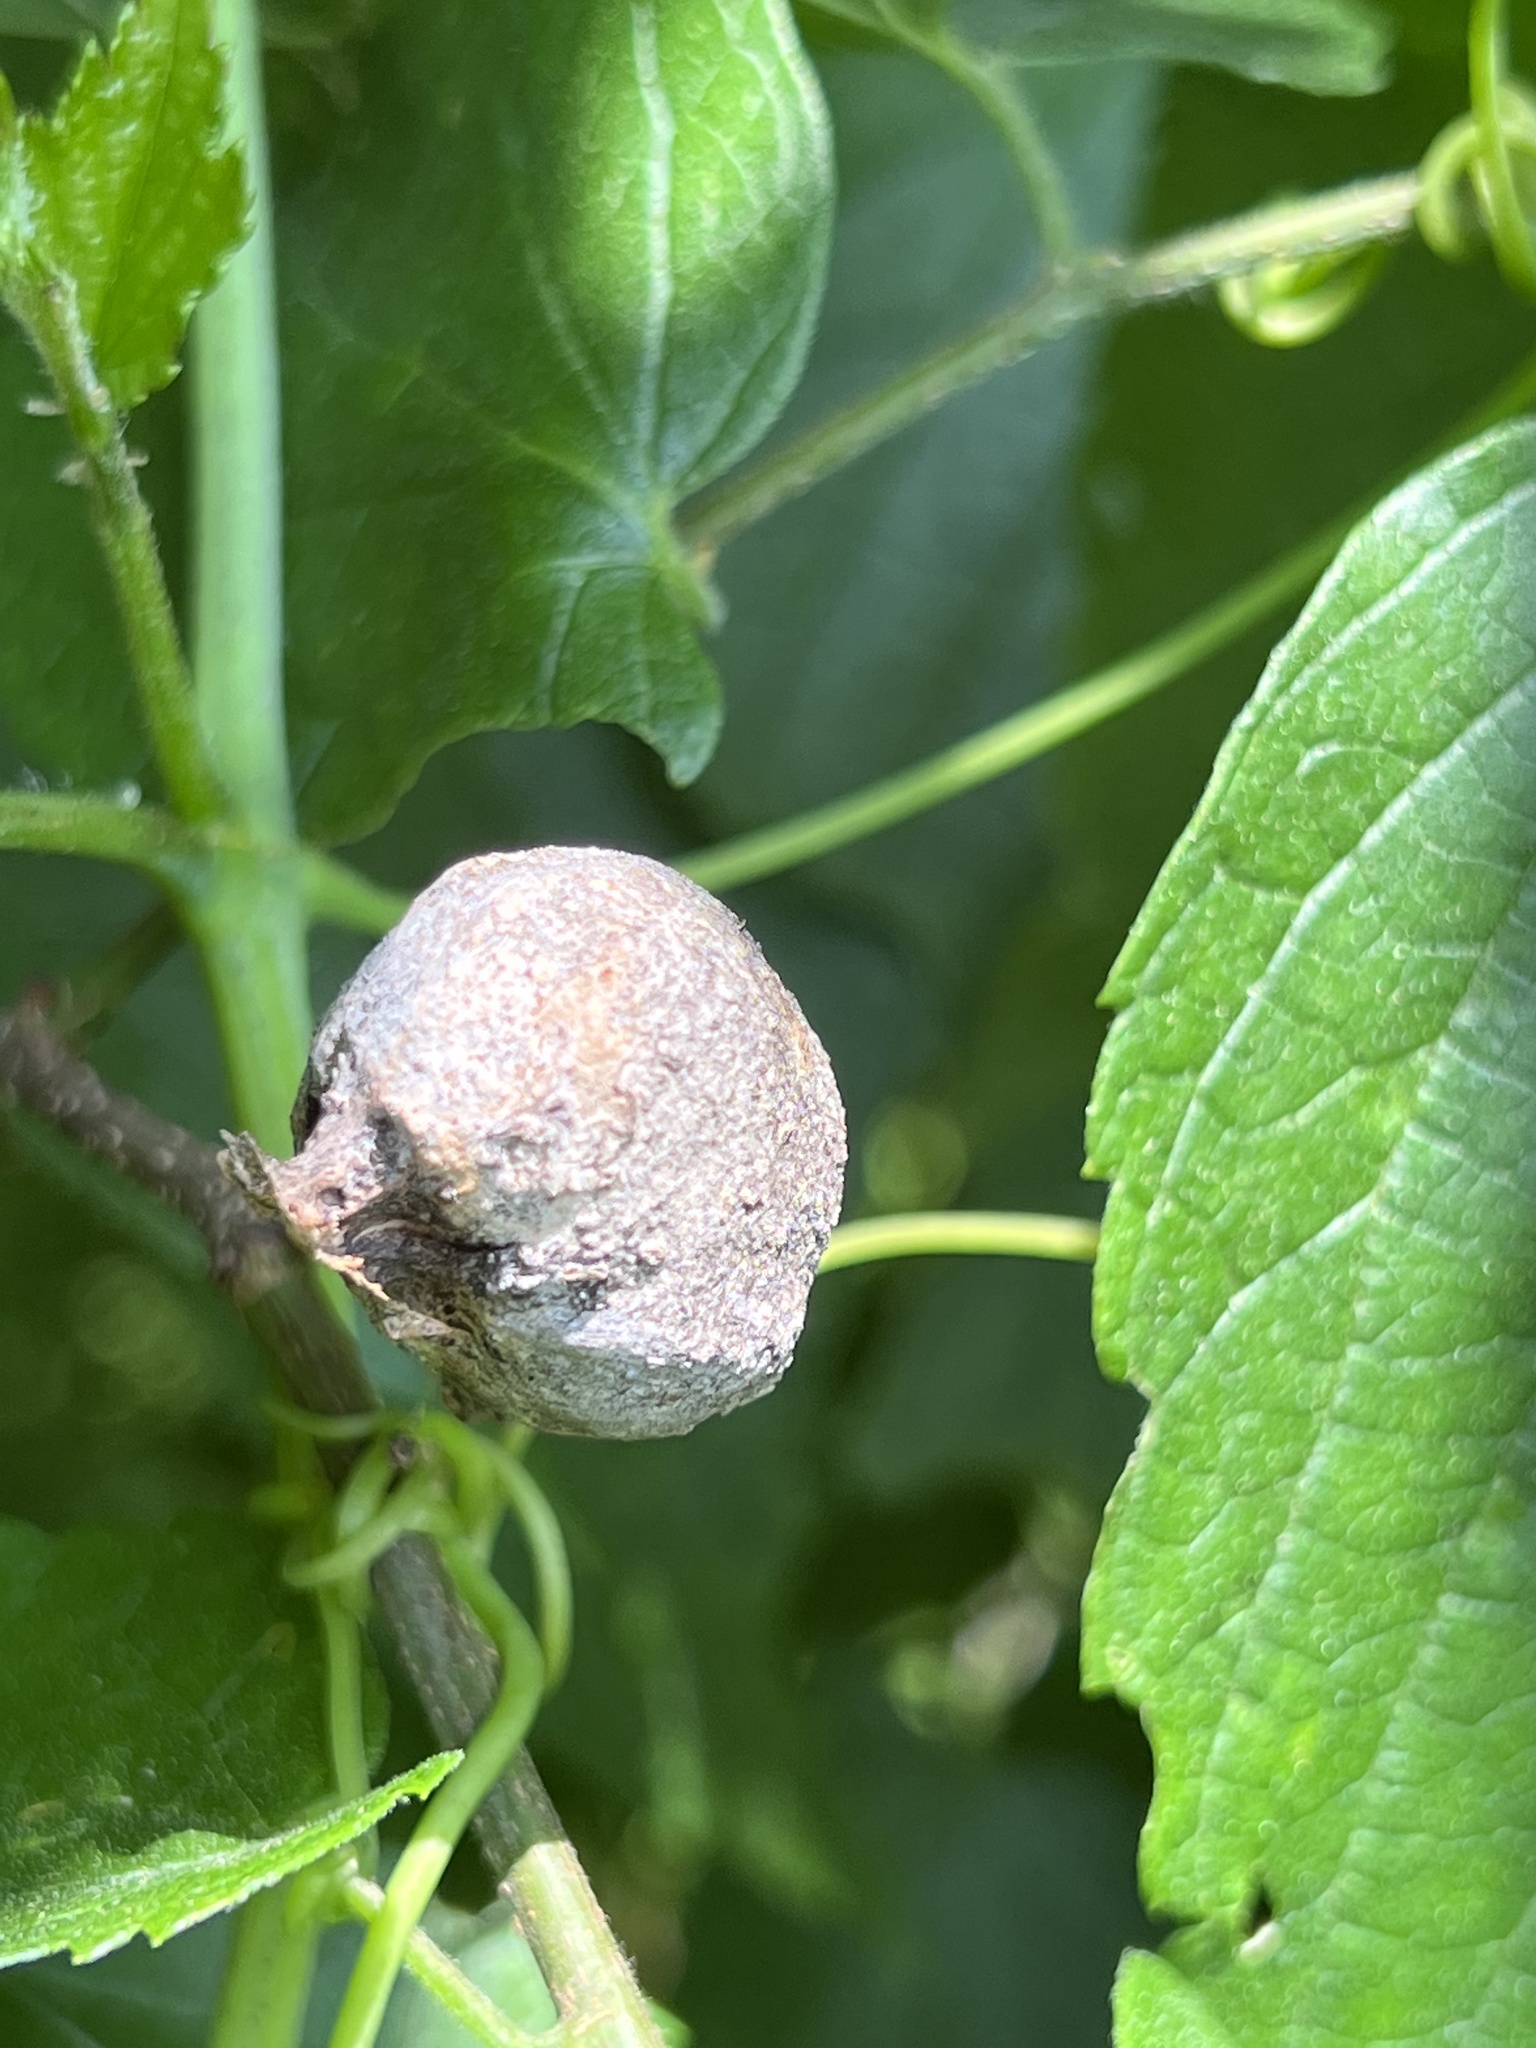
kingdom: Animalia
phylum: Arthropoda
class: Insecta
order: Hemiptera
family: Aphalaridae
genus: Pachypsylla
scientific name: Pachypsylla venusta
